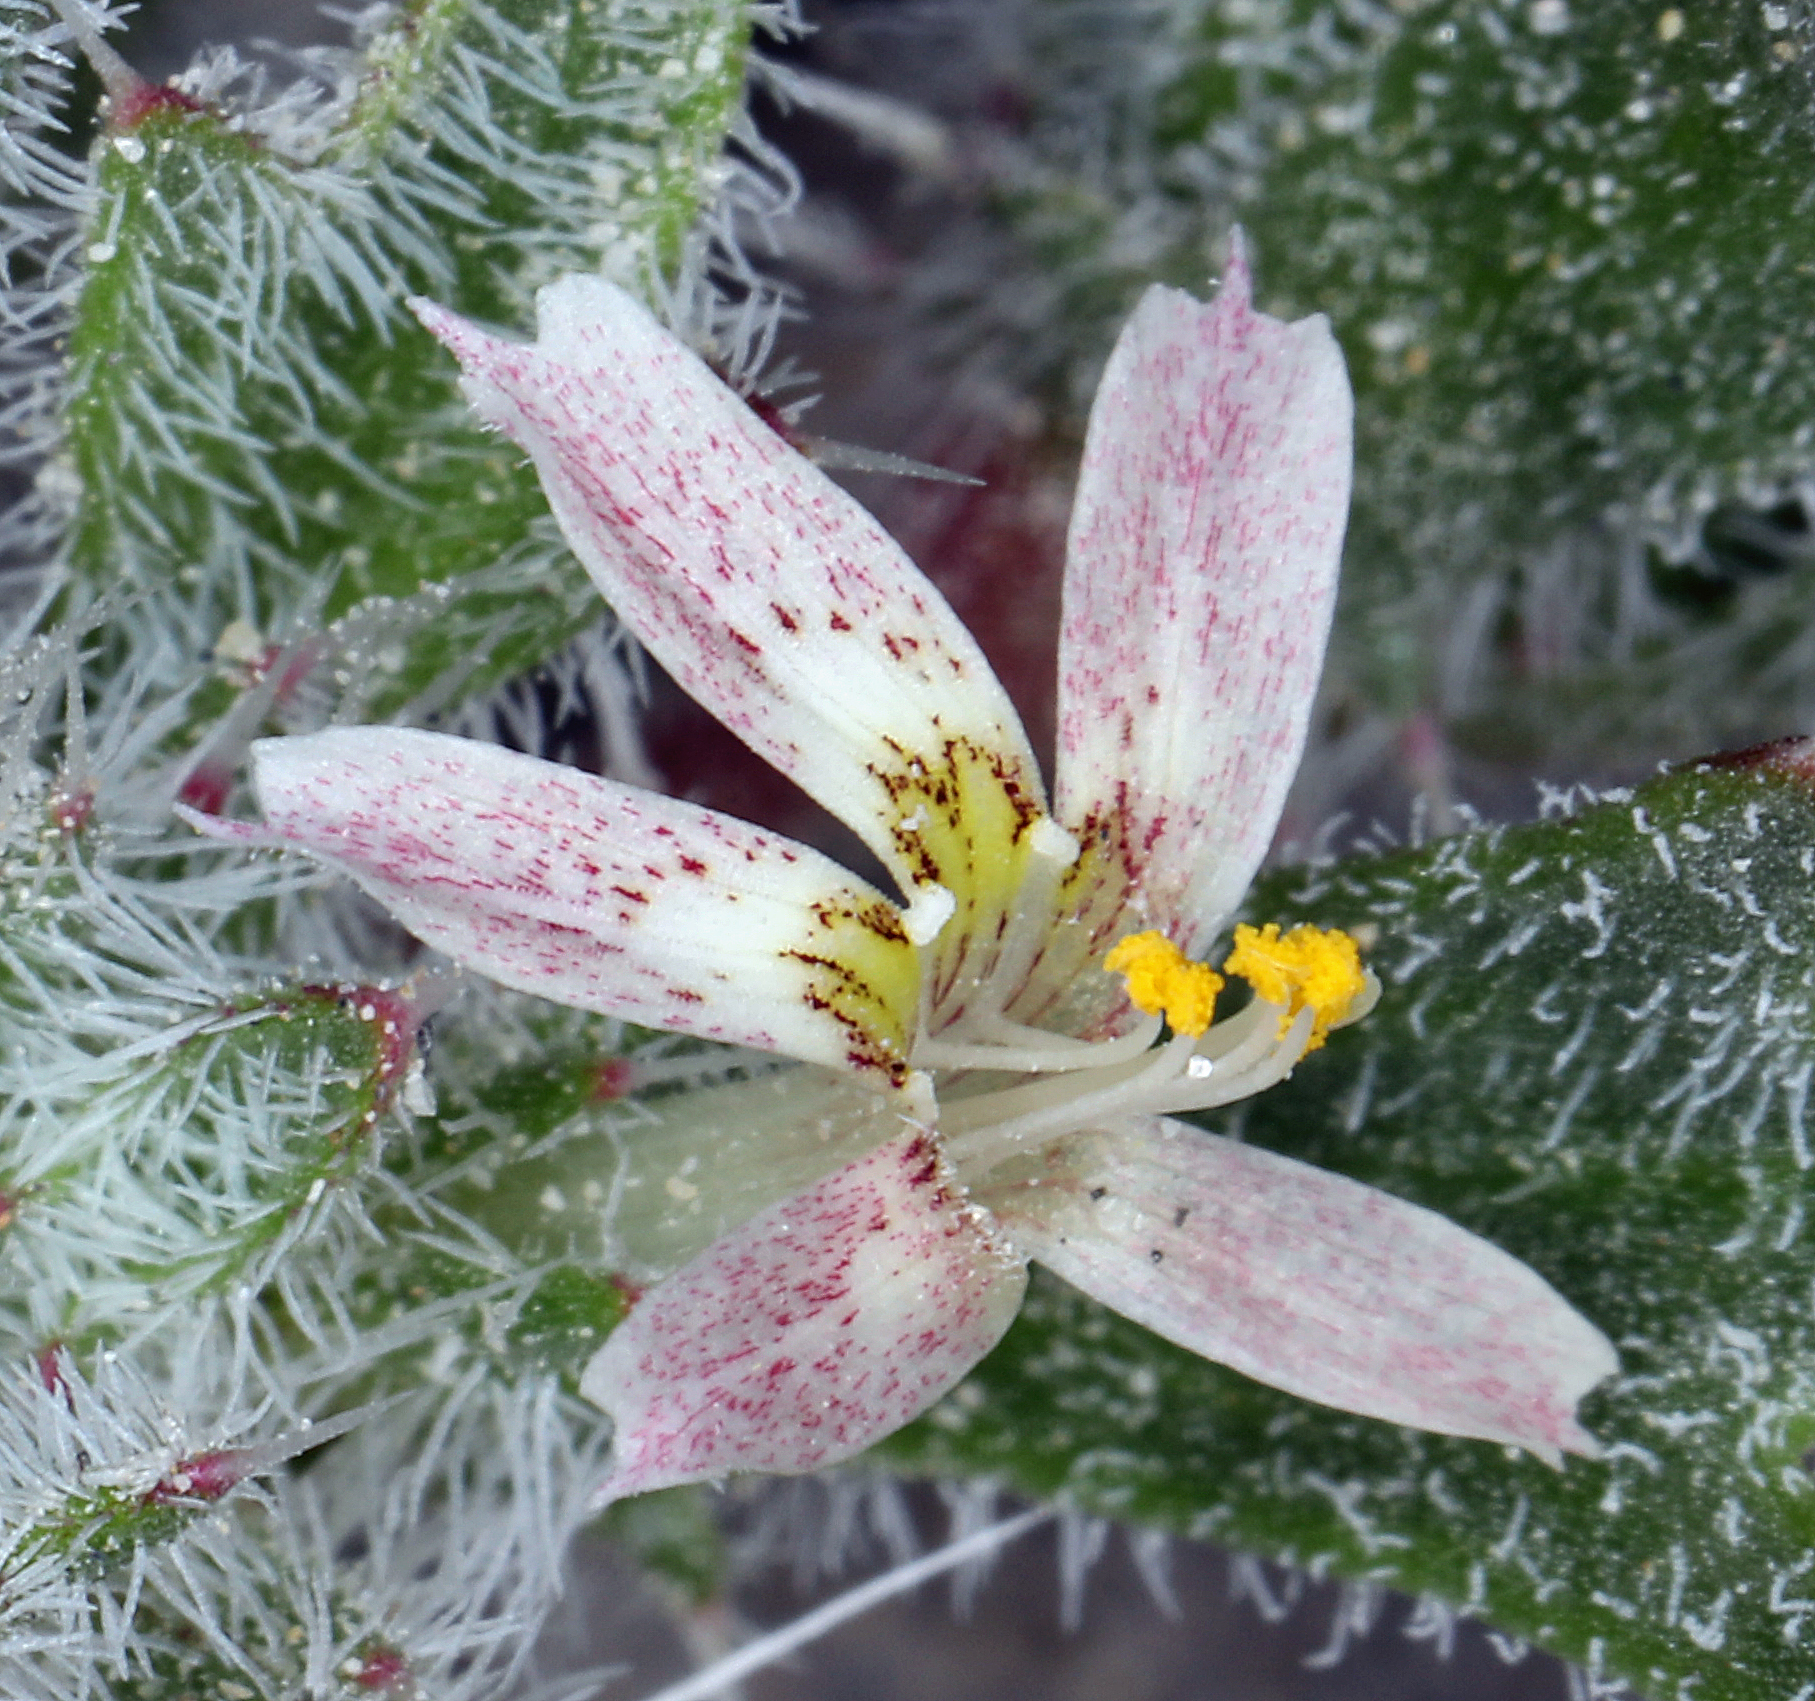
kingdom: Plantae
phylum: Tracheophyta
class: Magnoliopsida
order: Ericales
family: Polemoniaceae
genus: Loeseliastrum
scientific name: Loeseliastrum matthewsii
